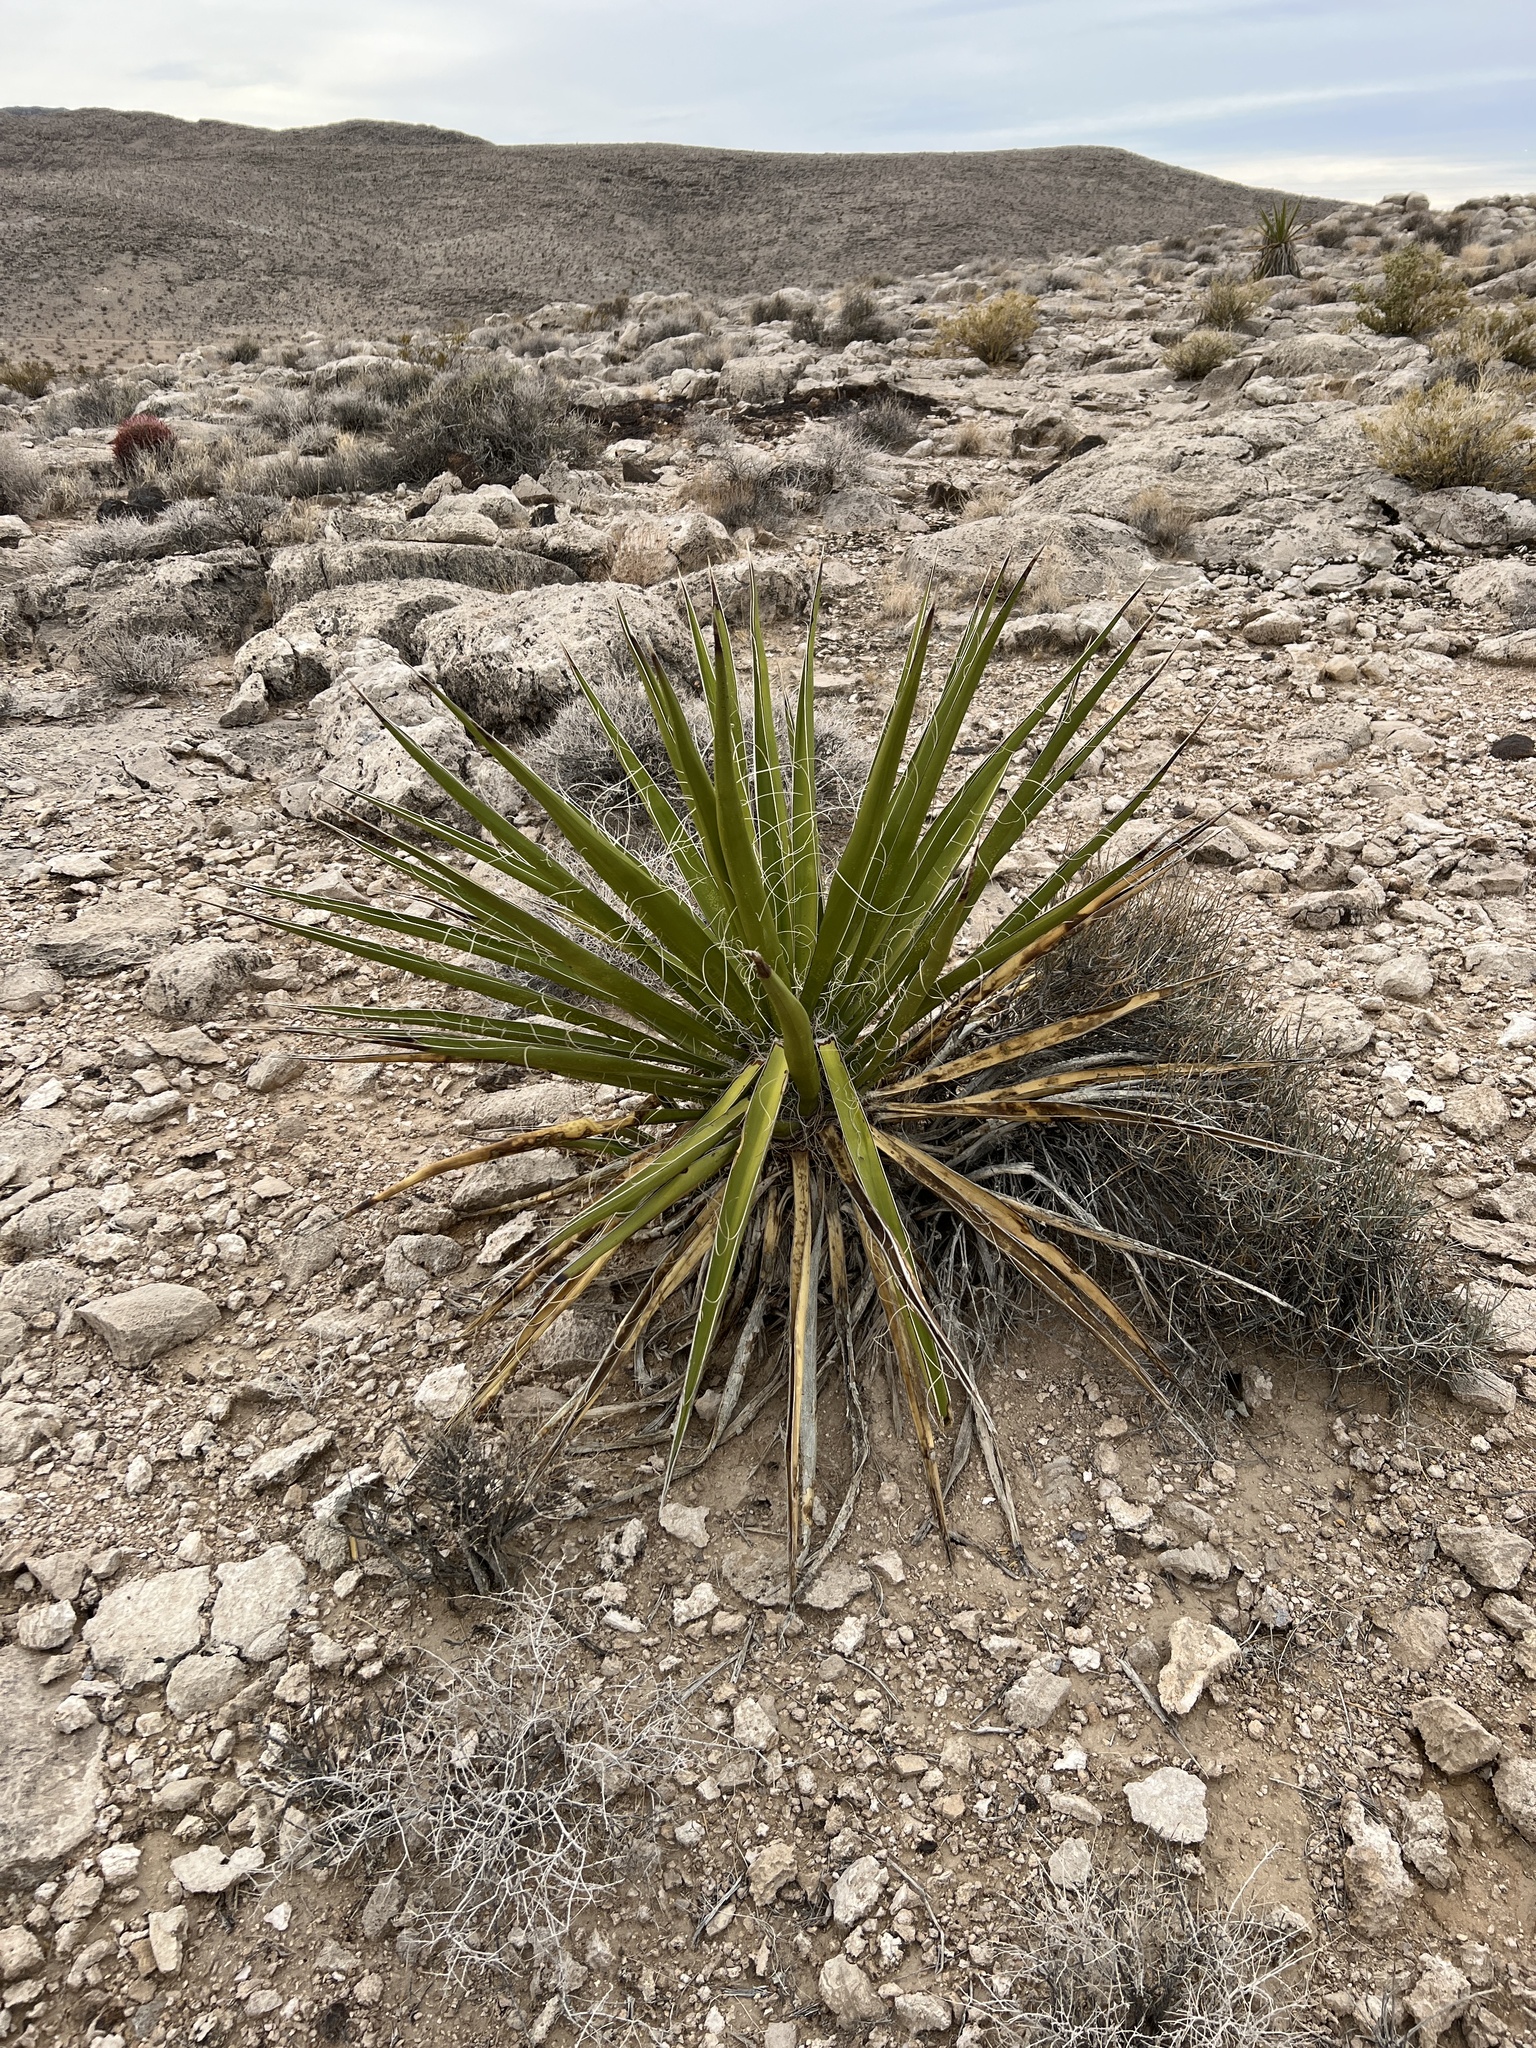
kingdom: Plantae
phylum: Tracheophyta
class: Liliopsida
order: Asparagales
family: Asparagaceae
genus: Yucca
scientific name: Yucca schidigera
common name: Mojave yucca
